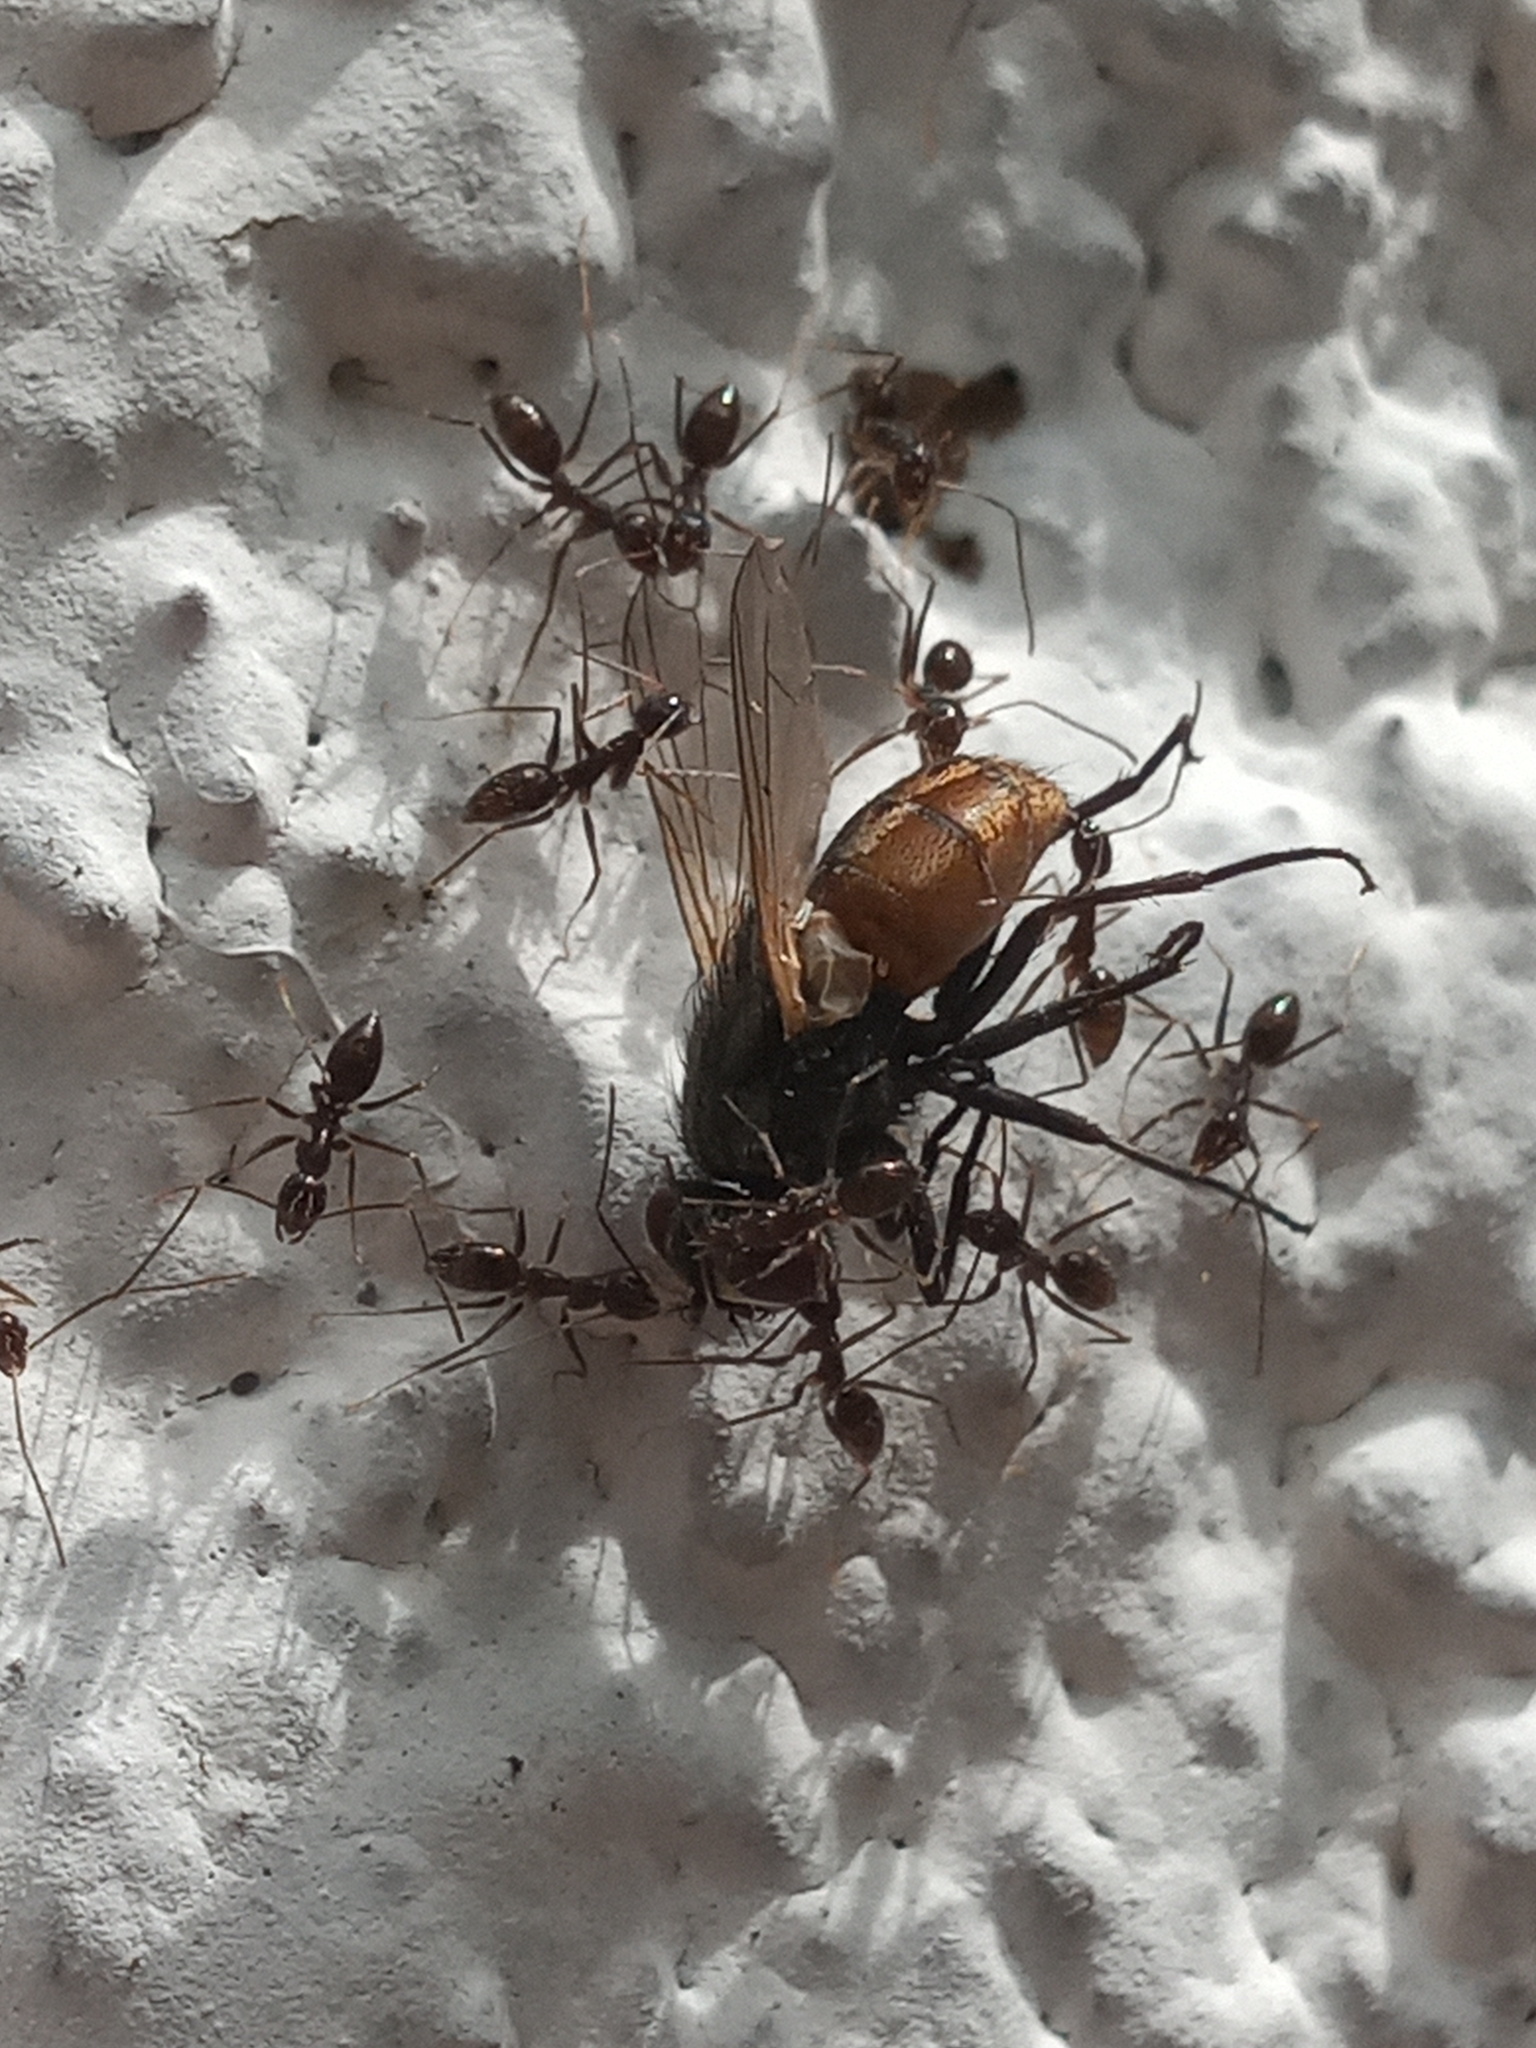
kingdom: Animalia
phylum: Arthropoda
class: Insecta
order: Diptera
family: Muscidae
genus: Musca
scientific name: Musca domestica
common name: House fly
